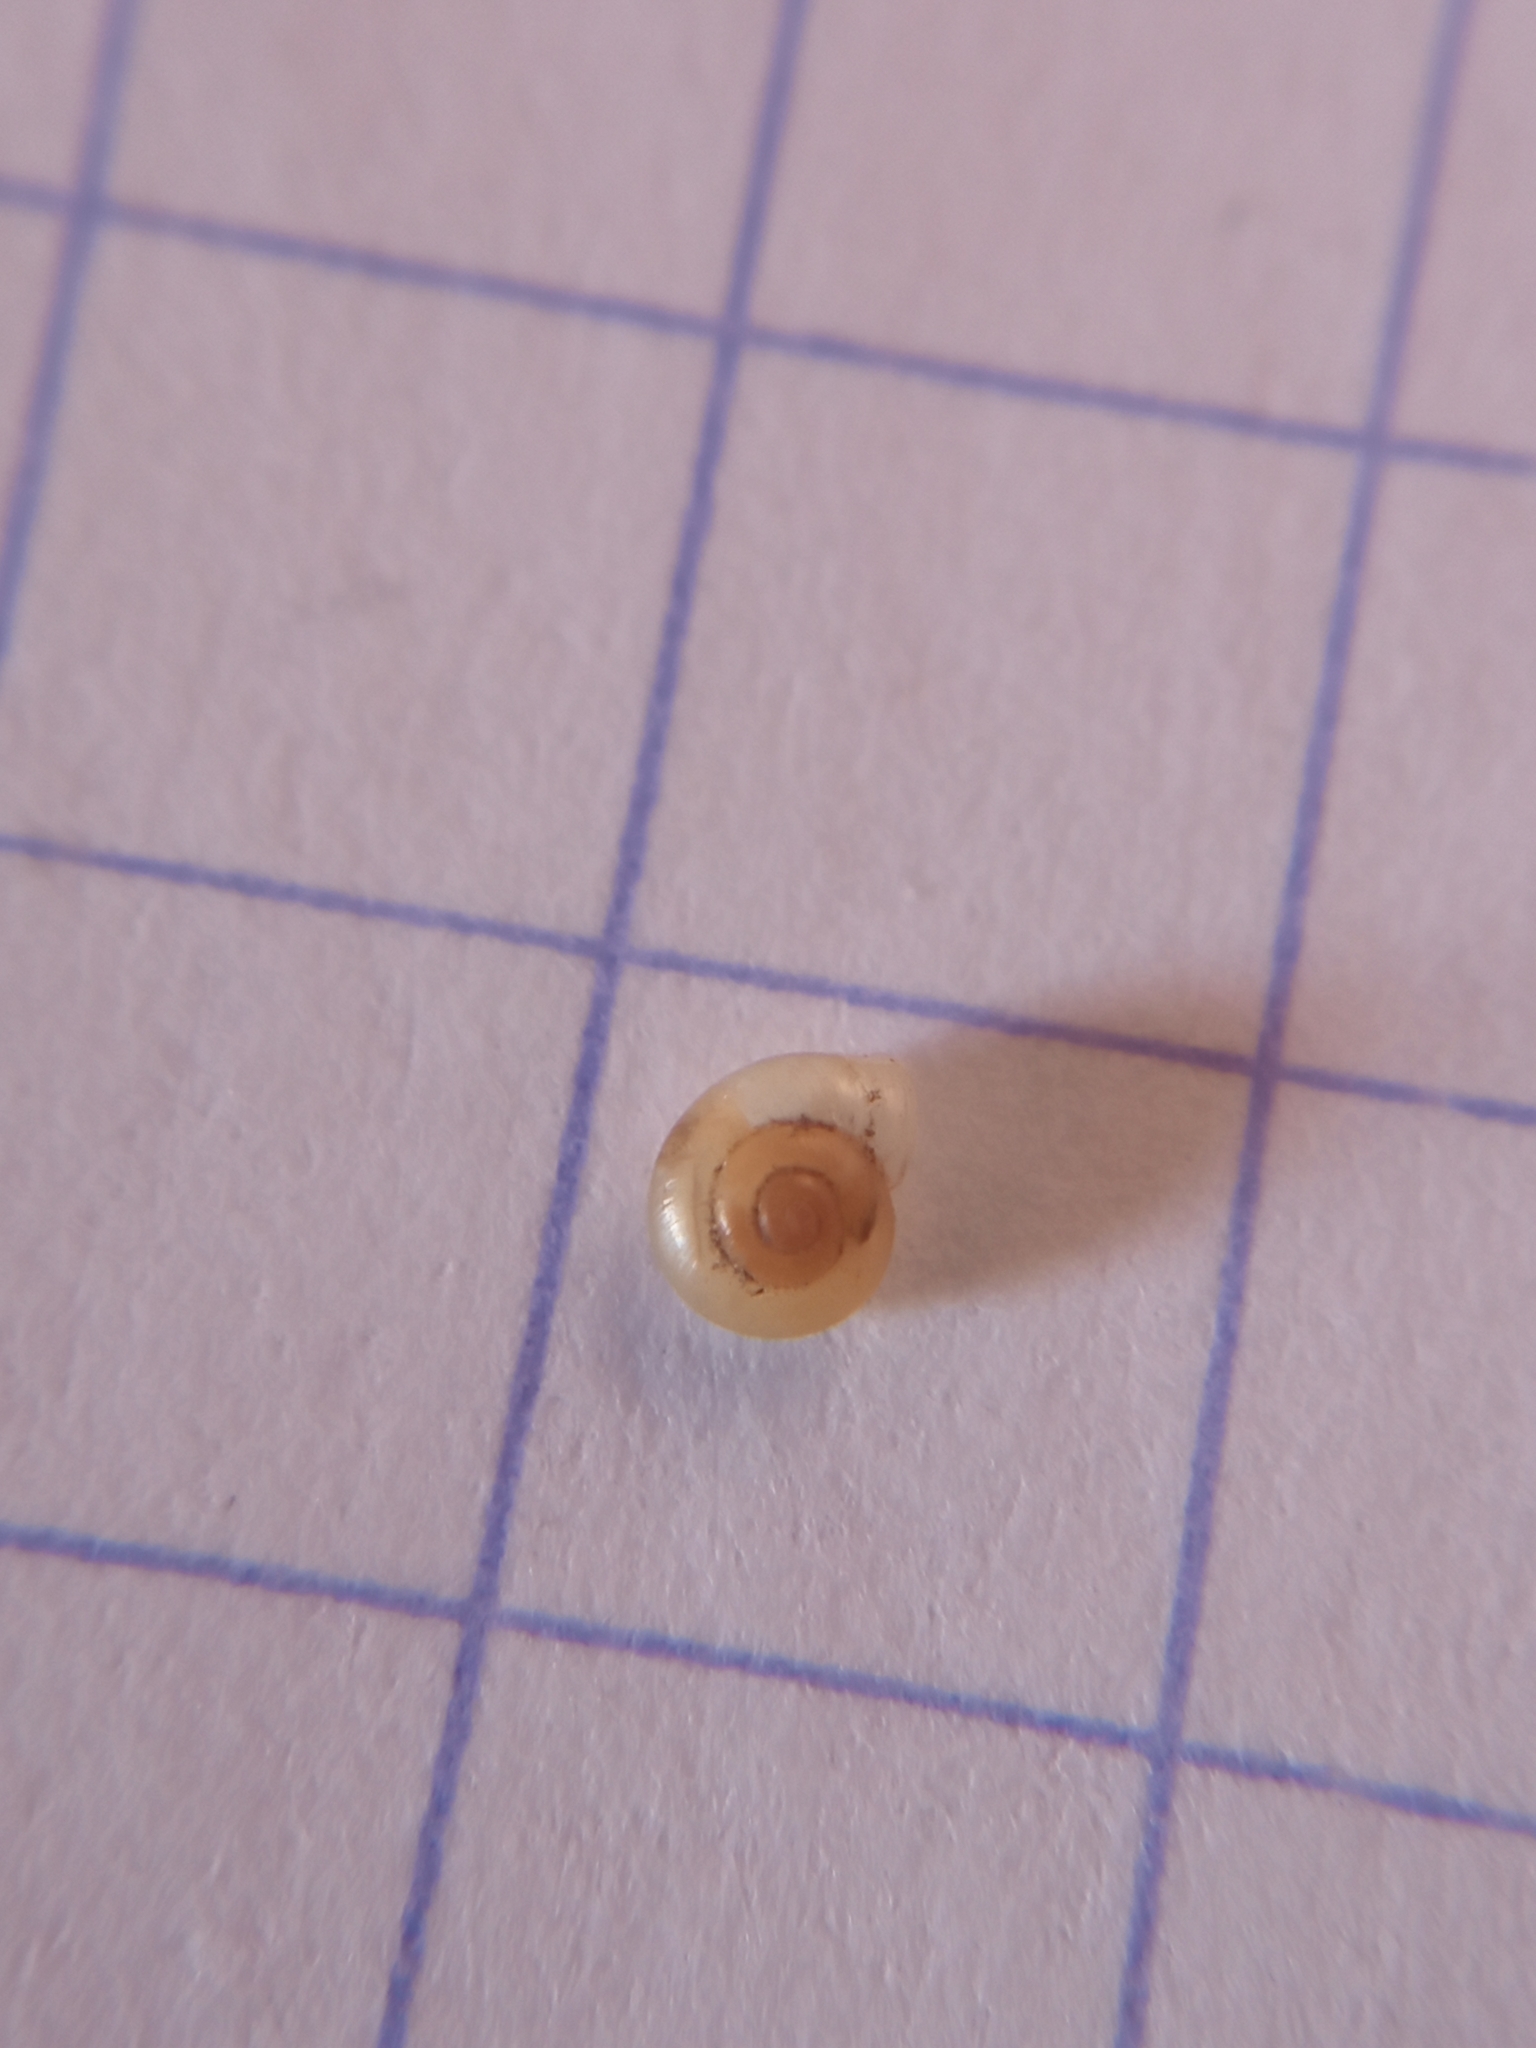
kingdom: Animalia
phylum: Mollusca
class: Gastropoda
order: Stylommatophora
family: Valloniidae
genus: Vallonia
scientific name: Vallonia pulchella
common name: Smooth grass snail
